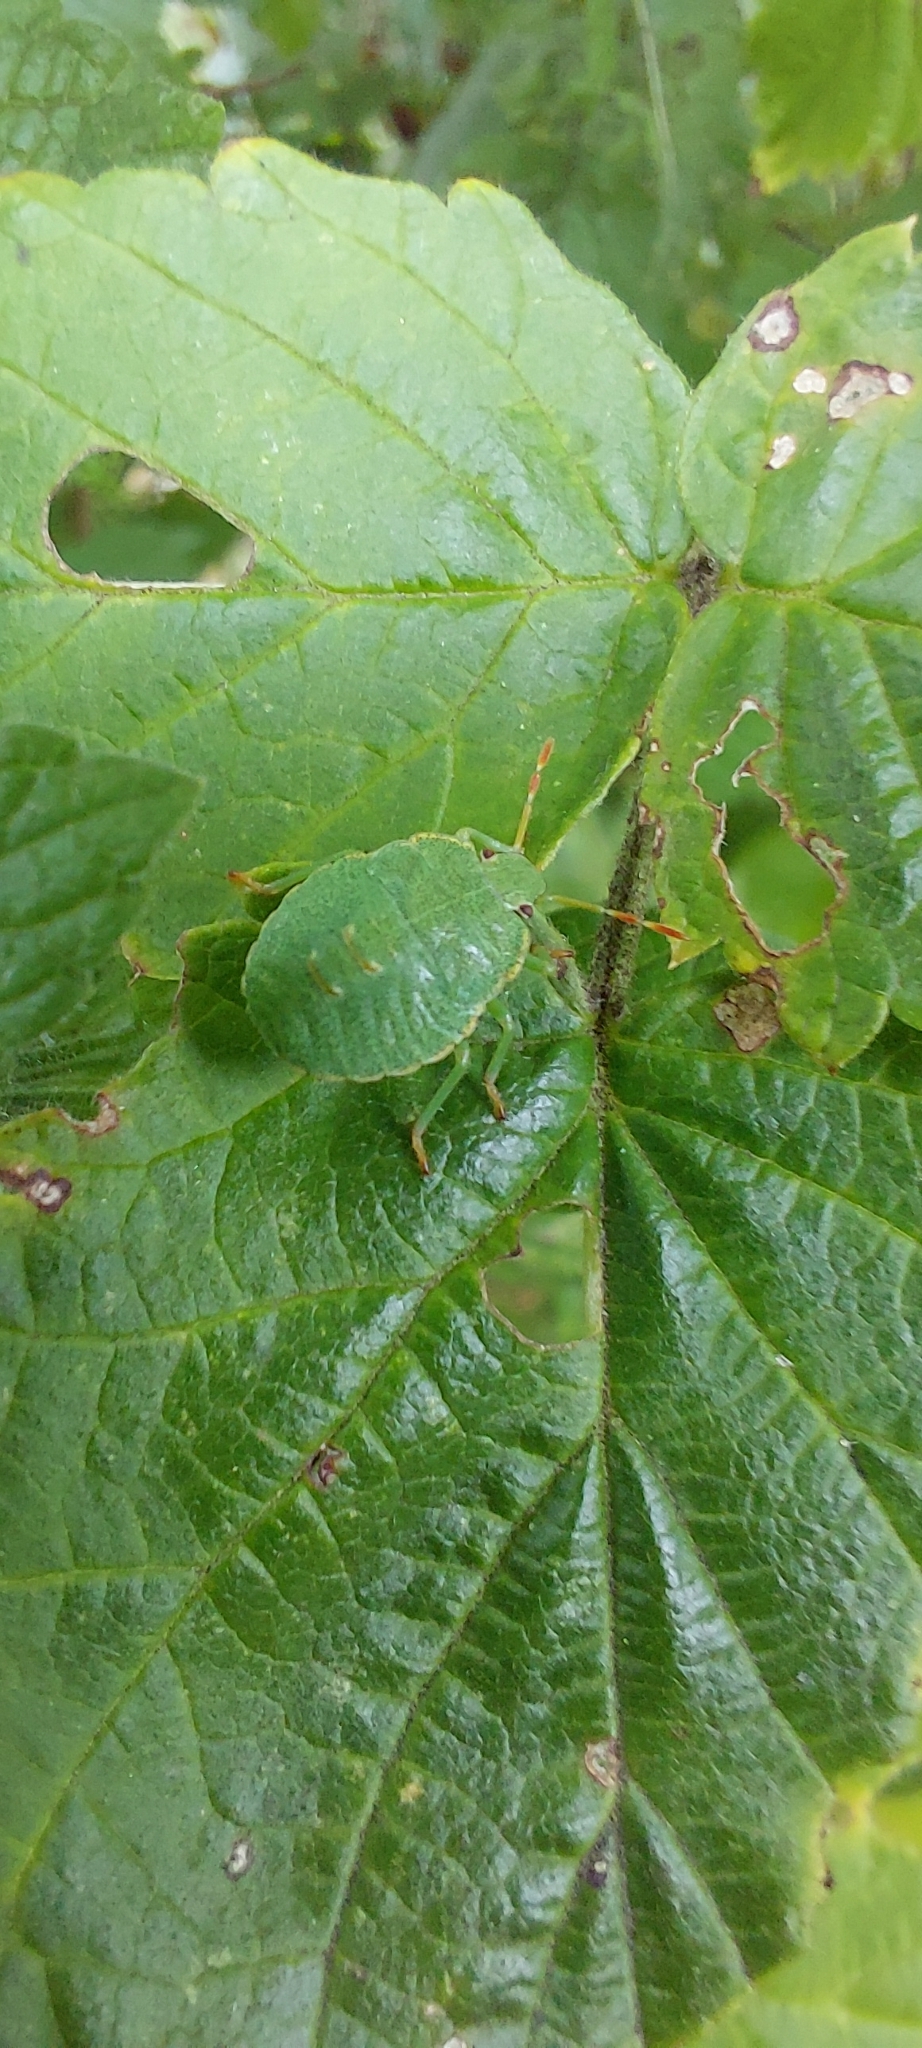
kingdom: Animalia
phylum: Arthropoda
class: Insecta
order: Hemiptera
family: Pentatomidae
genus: Palomena
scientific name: Palomena prasina
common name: Green shieldbug
